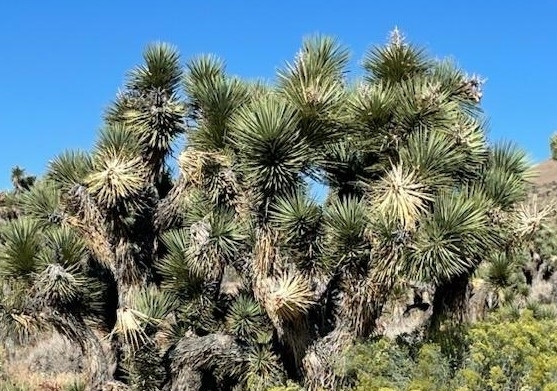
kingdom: Plantae
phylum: Tracheophyta
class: Liliopsida
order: Asparagales
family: Asparagaceae
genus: Yucca
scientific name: Yucca brevifolia
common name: Joshua tree
